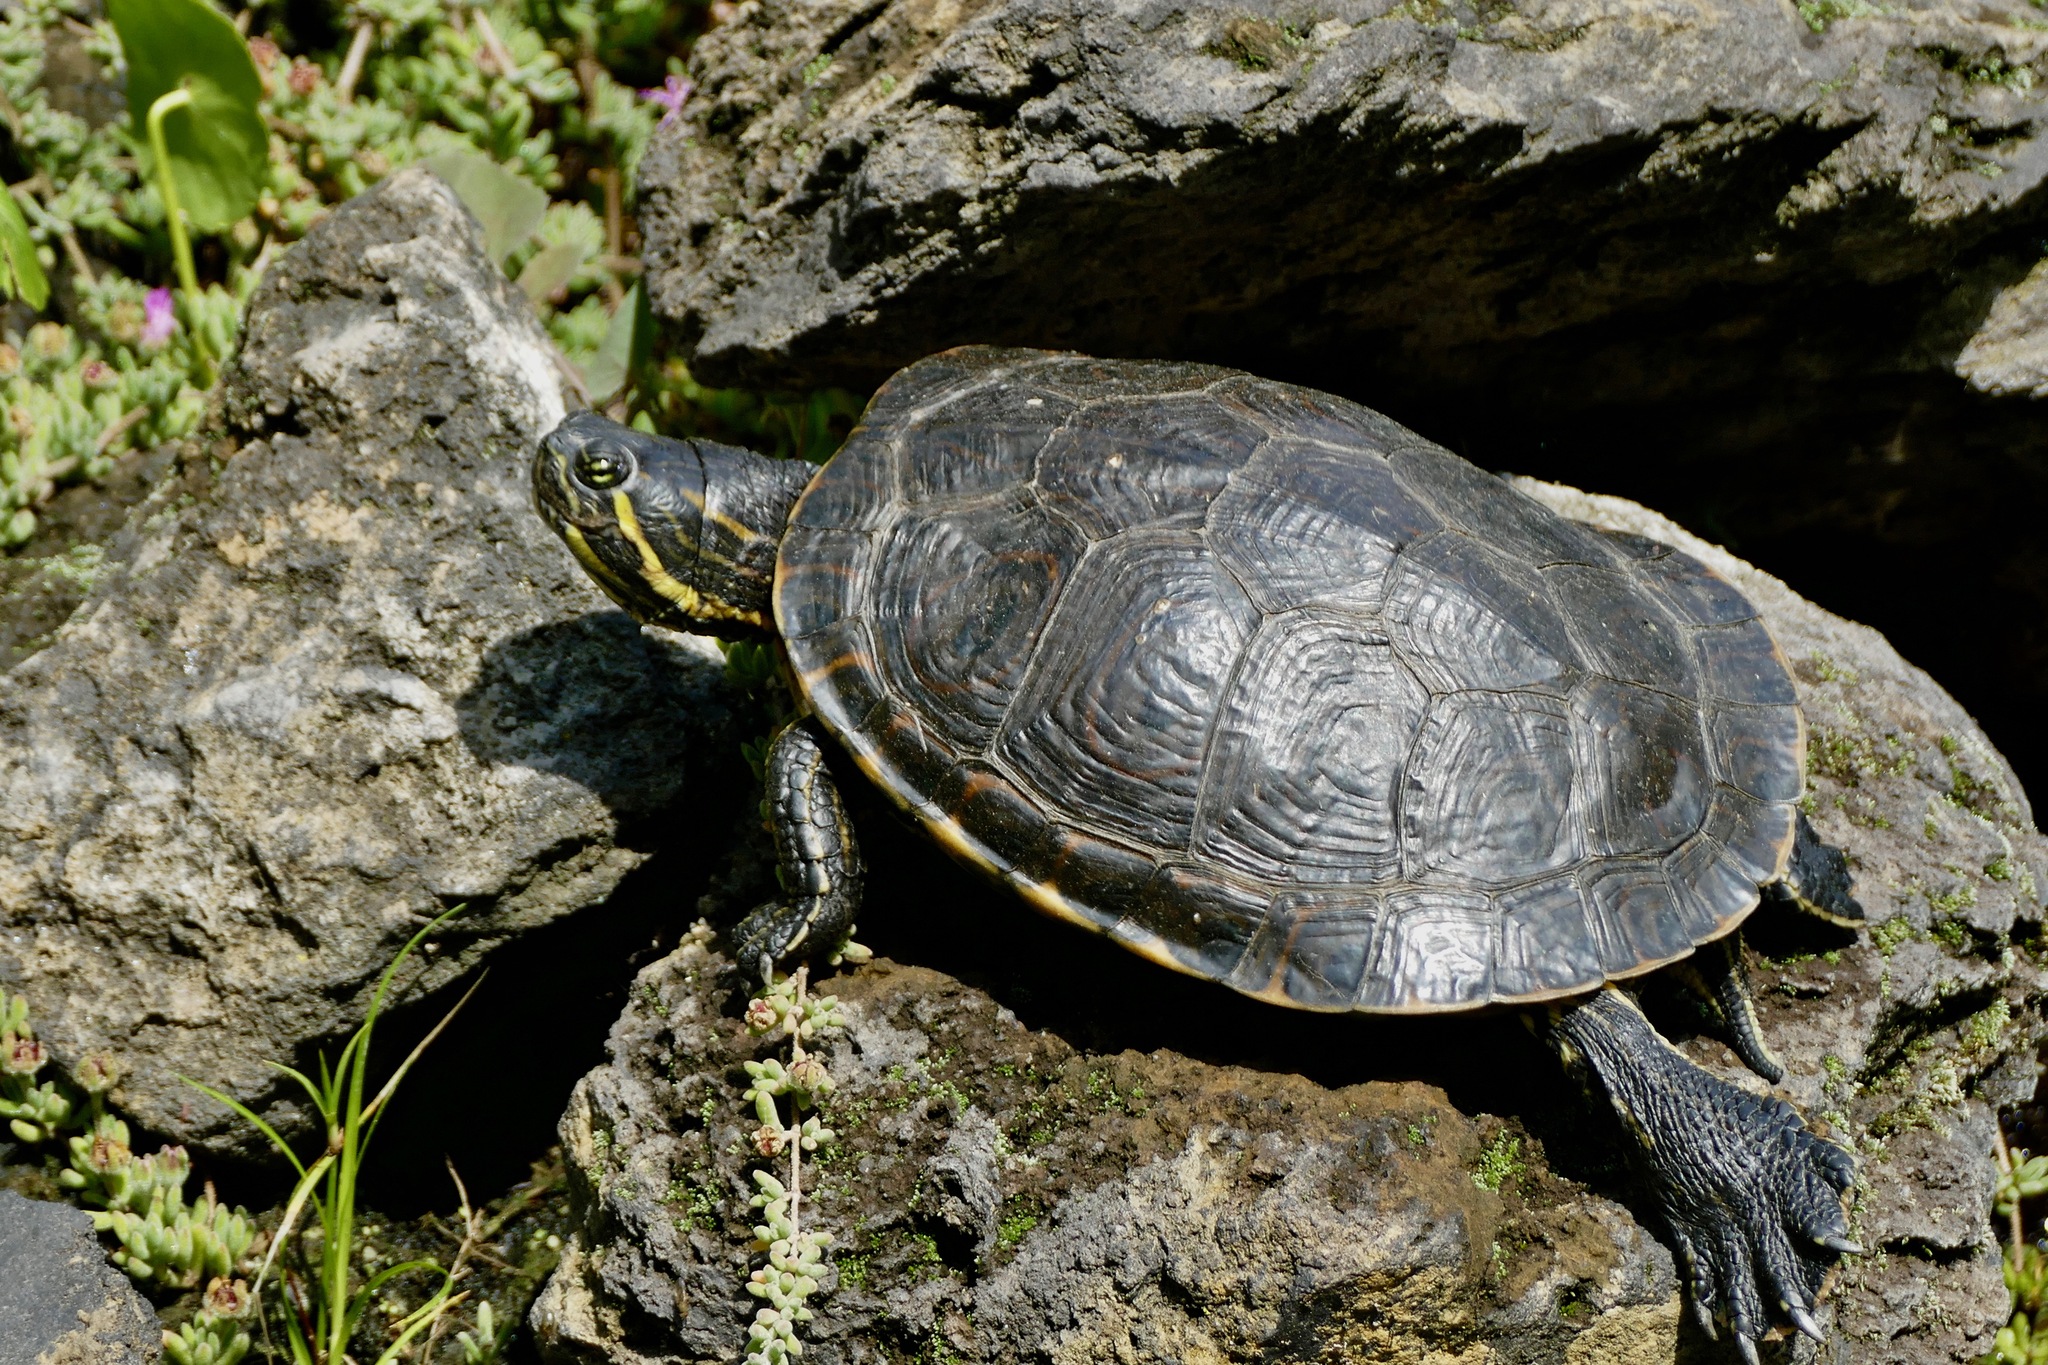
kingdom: Animalia
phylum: Chordata
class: Testudines
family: Emydidae
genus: Trachemys
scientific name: Trachemys venusta
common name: Mesoamerican slider
